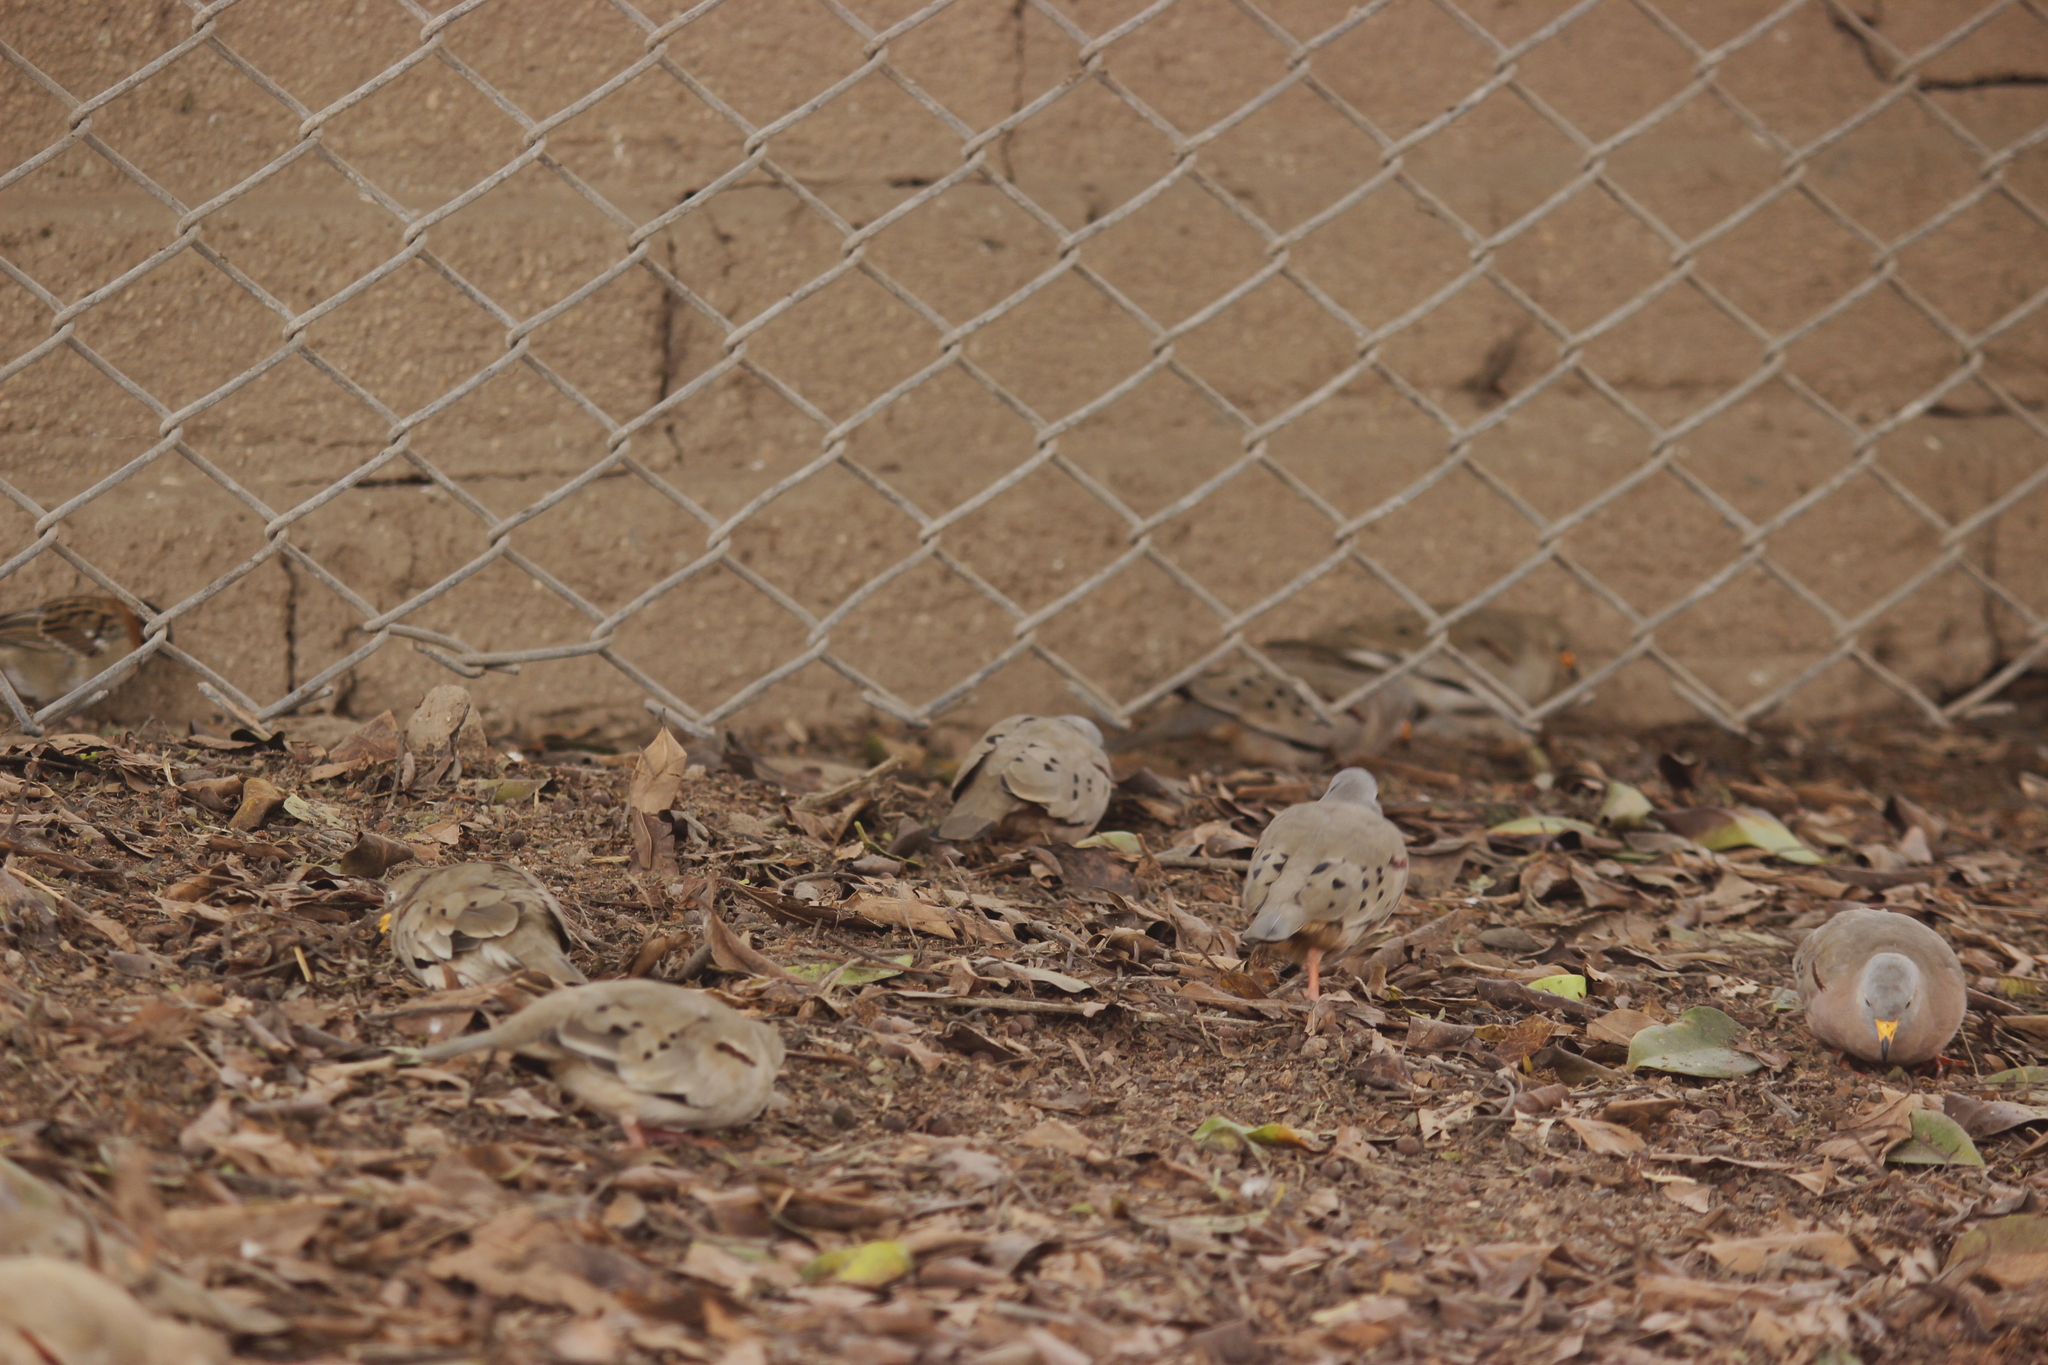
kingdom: Animalia
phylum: Chordata
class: Aves
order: Columbiformes
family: Columbidae
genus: Columbina
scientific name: Columbina cruziana
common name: Croaking ground dove
